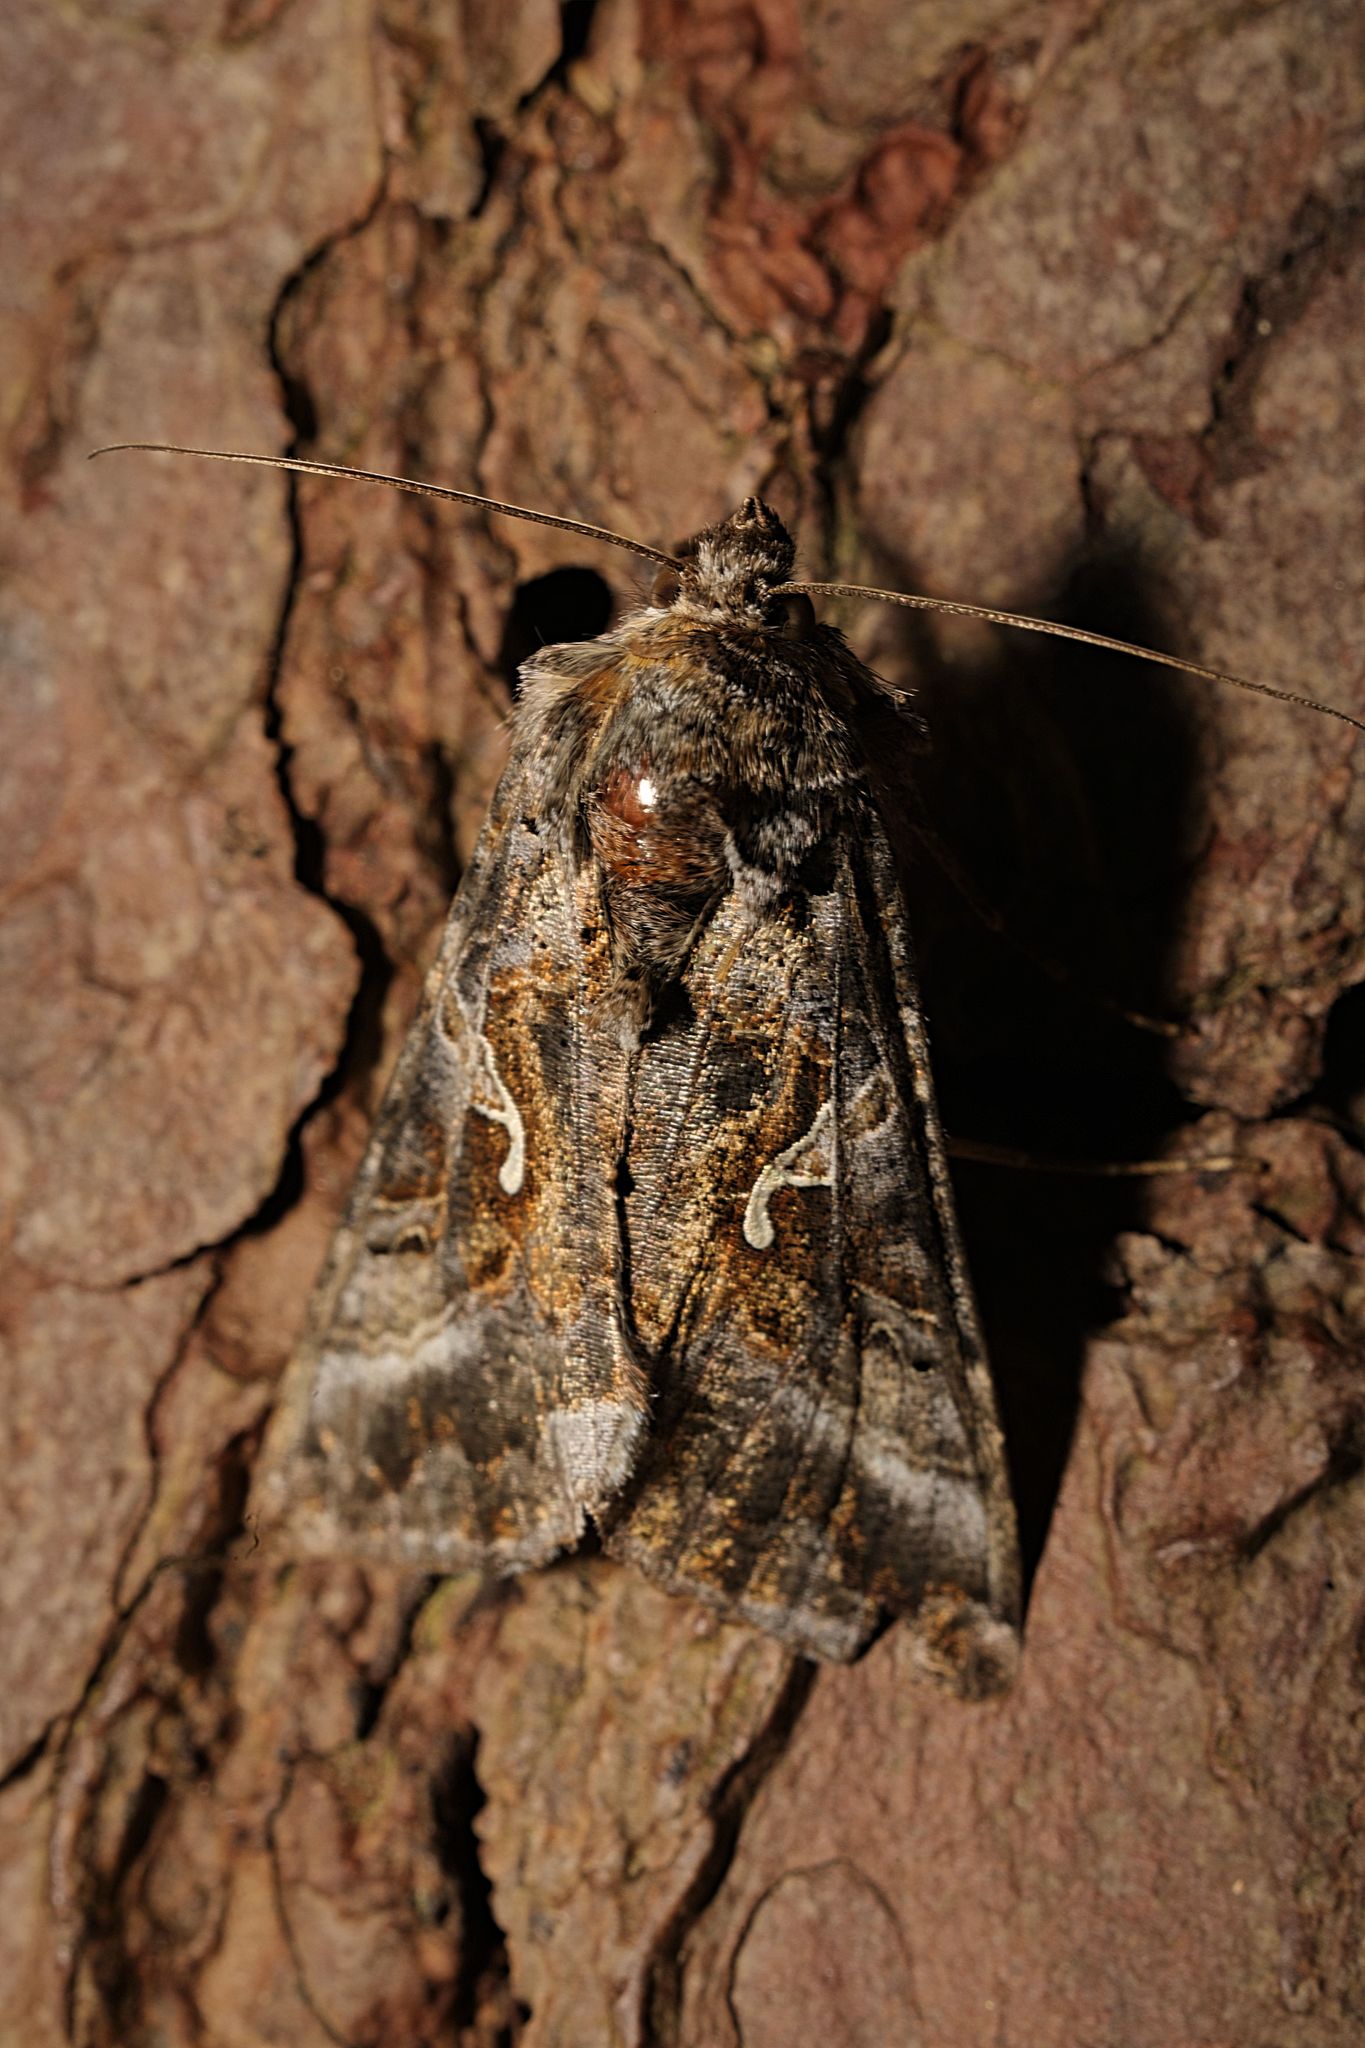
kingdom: Animalia
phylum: Arthropoda
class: Insecta
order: Lepidoptera
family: Noctuidae
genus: Autographa
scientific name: Autographa gamma
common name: Silver y
